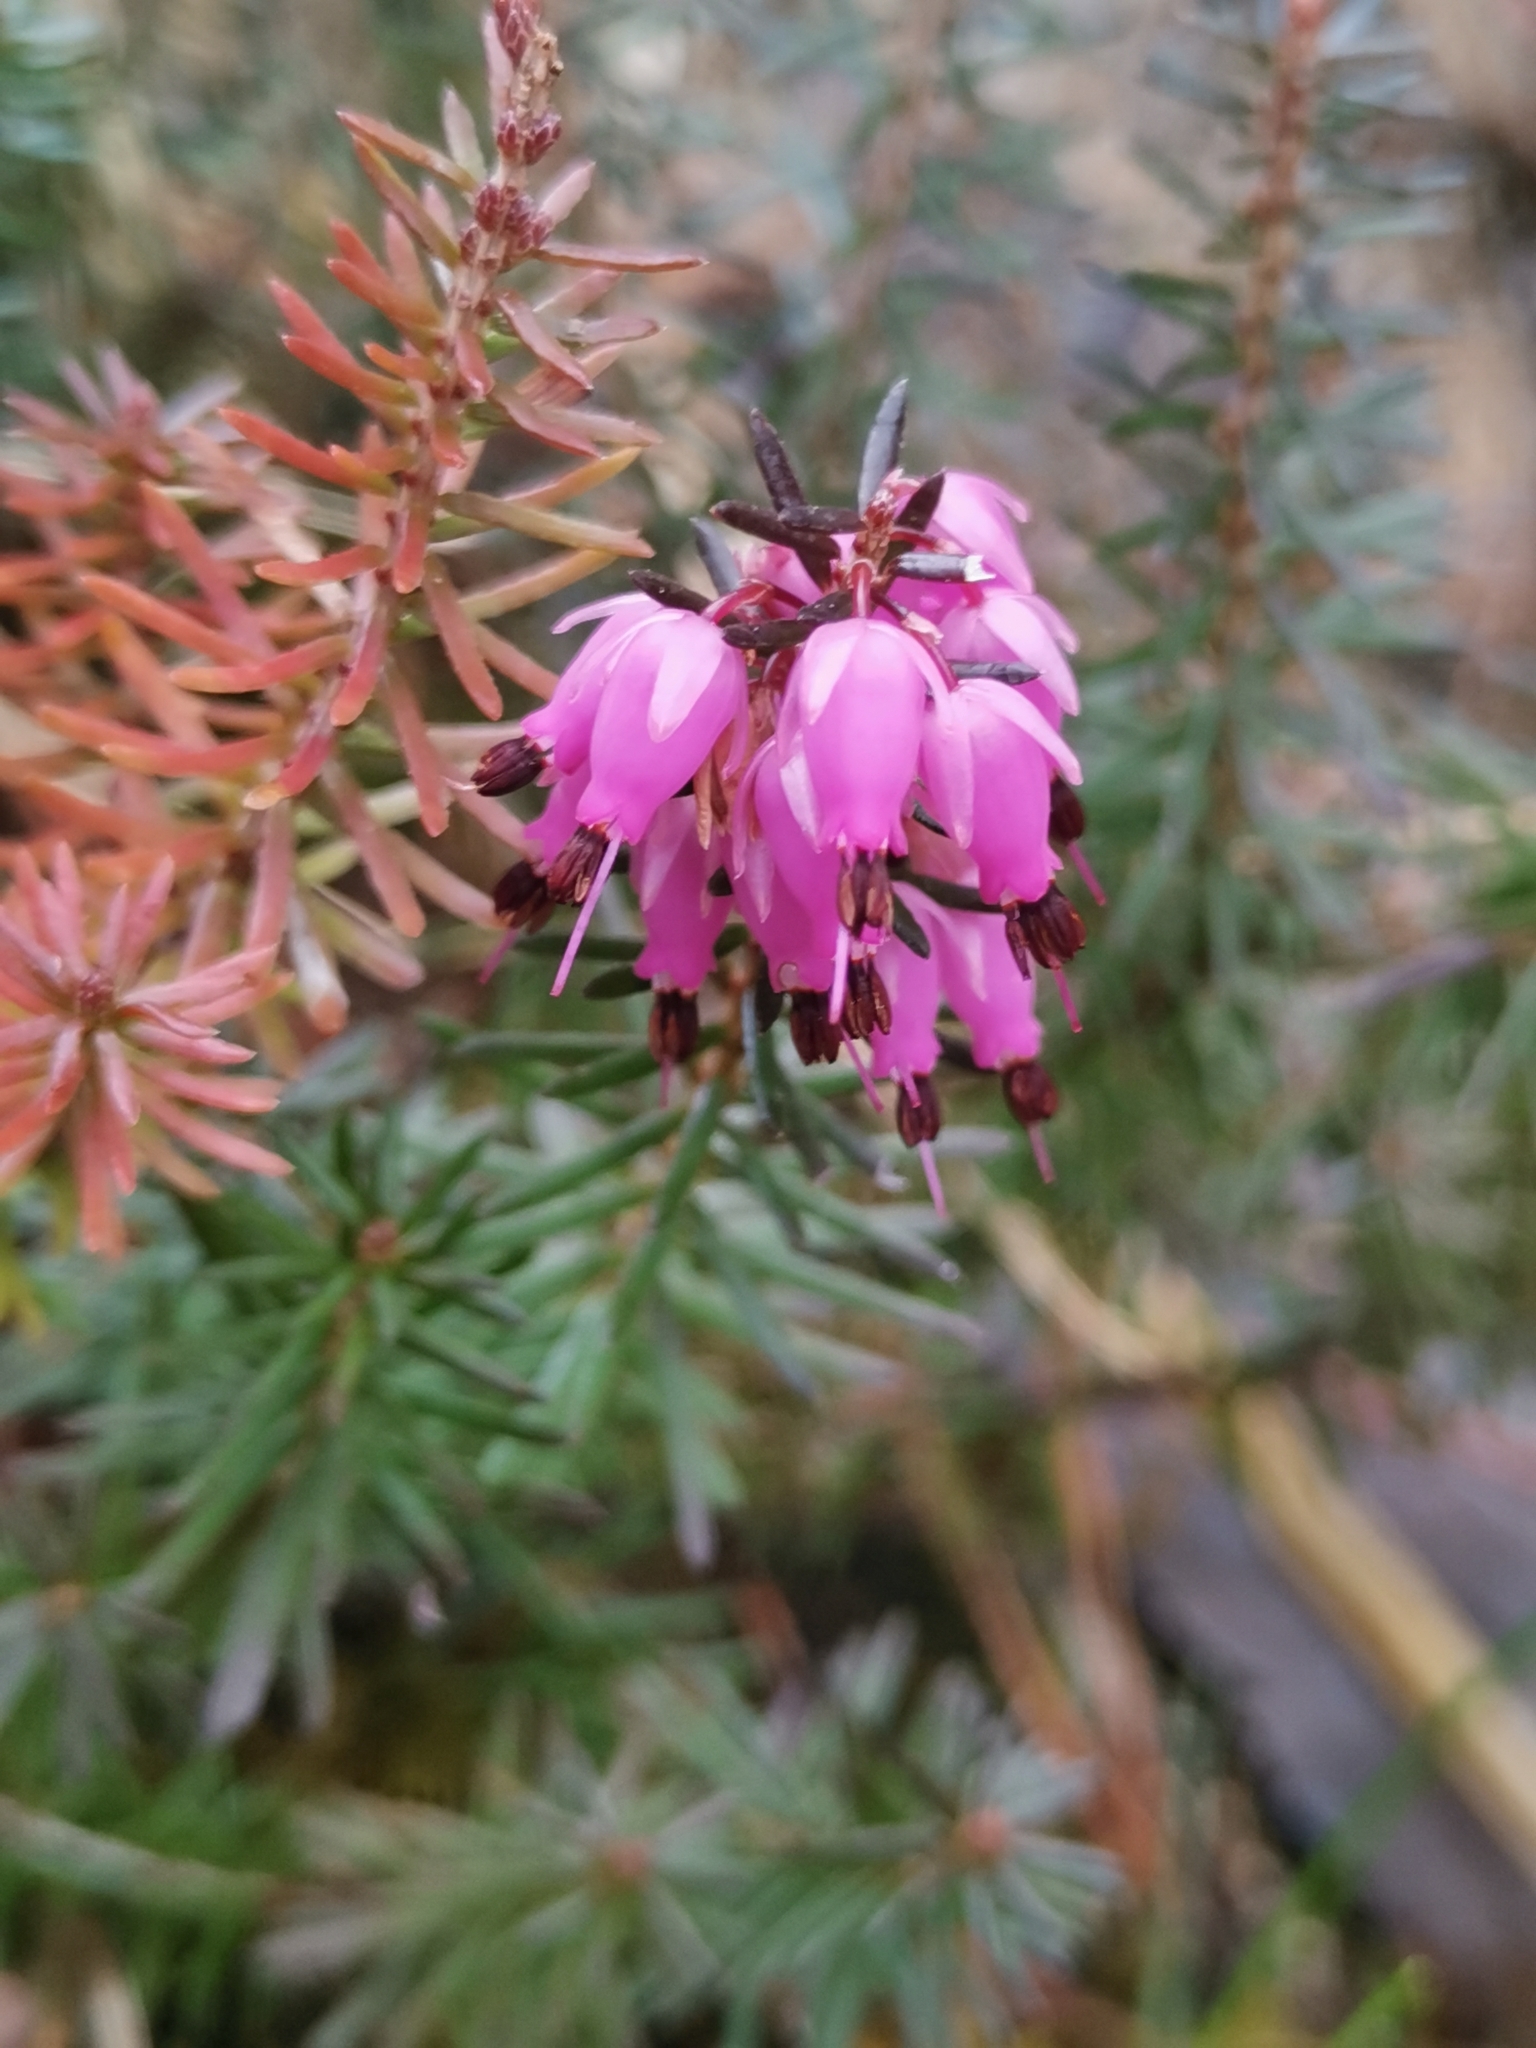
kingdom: Plantae
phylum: Tracheophyta
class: Magnoliopsida
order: Ericales
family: Ericaceae
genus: Erica
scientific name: Erica carnea
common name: Winter heath
